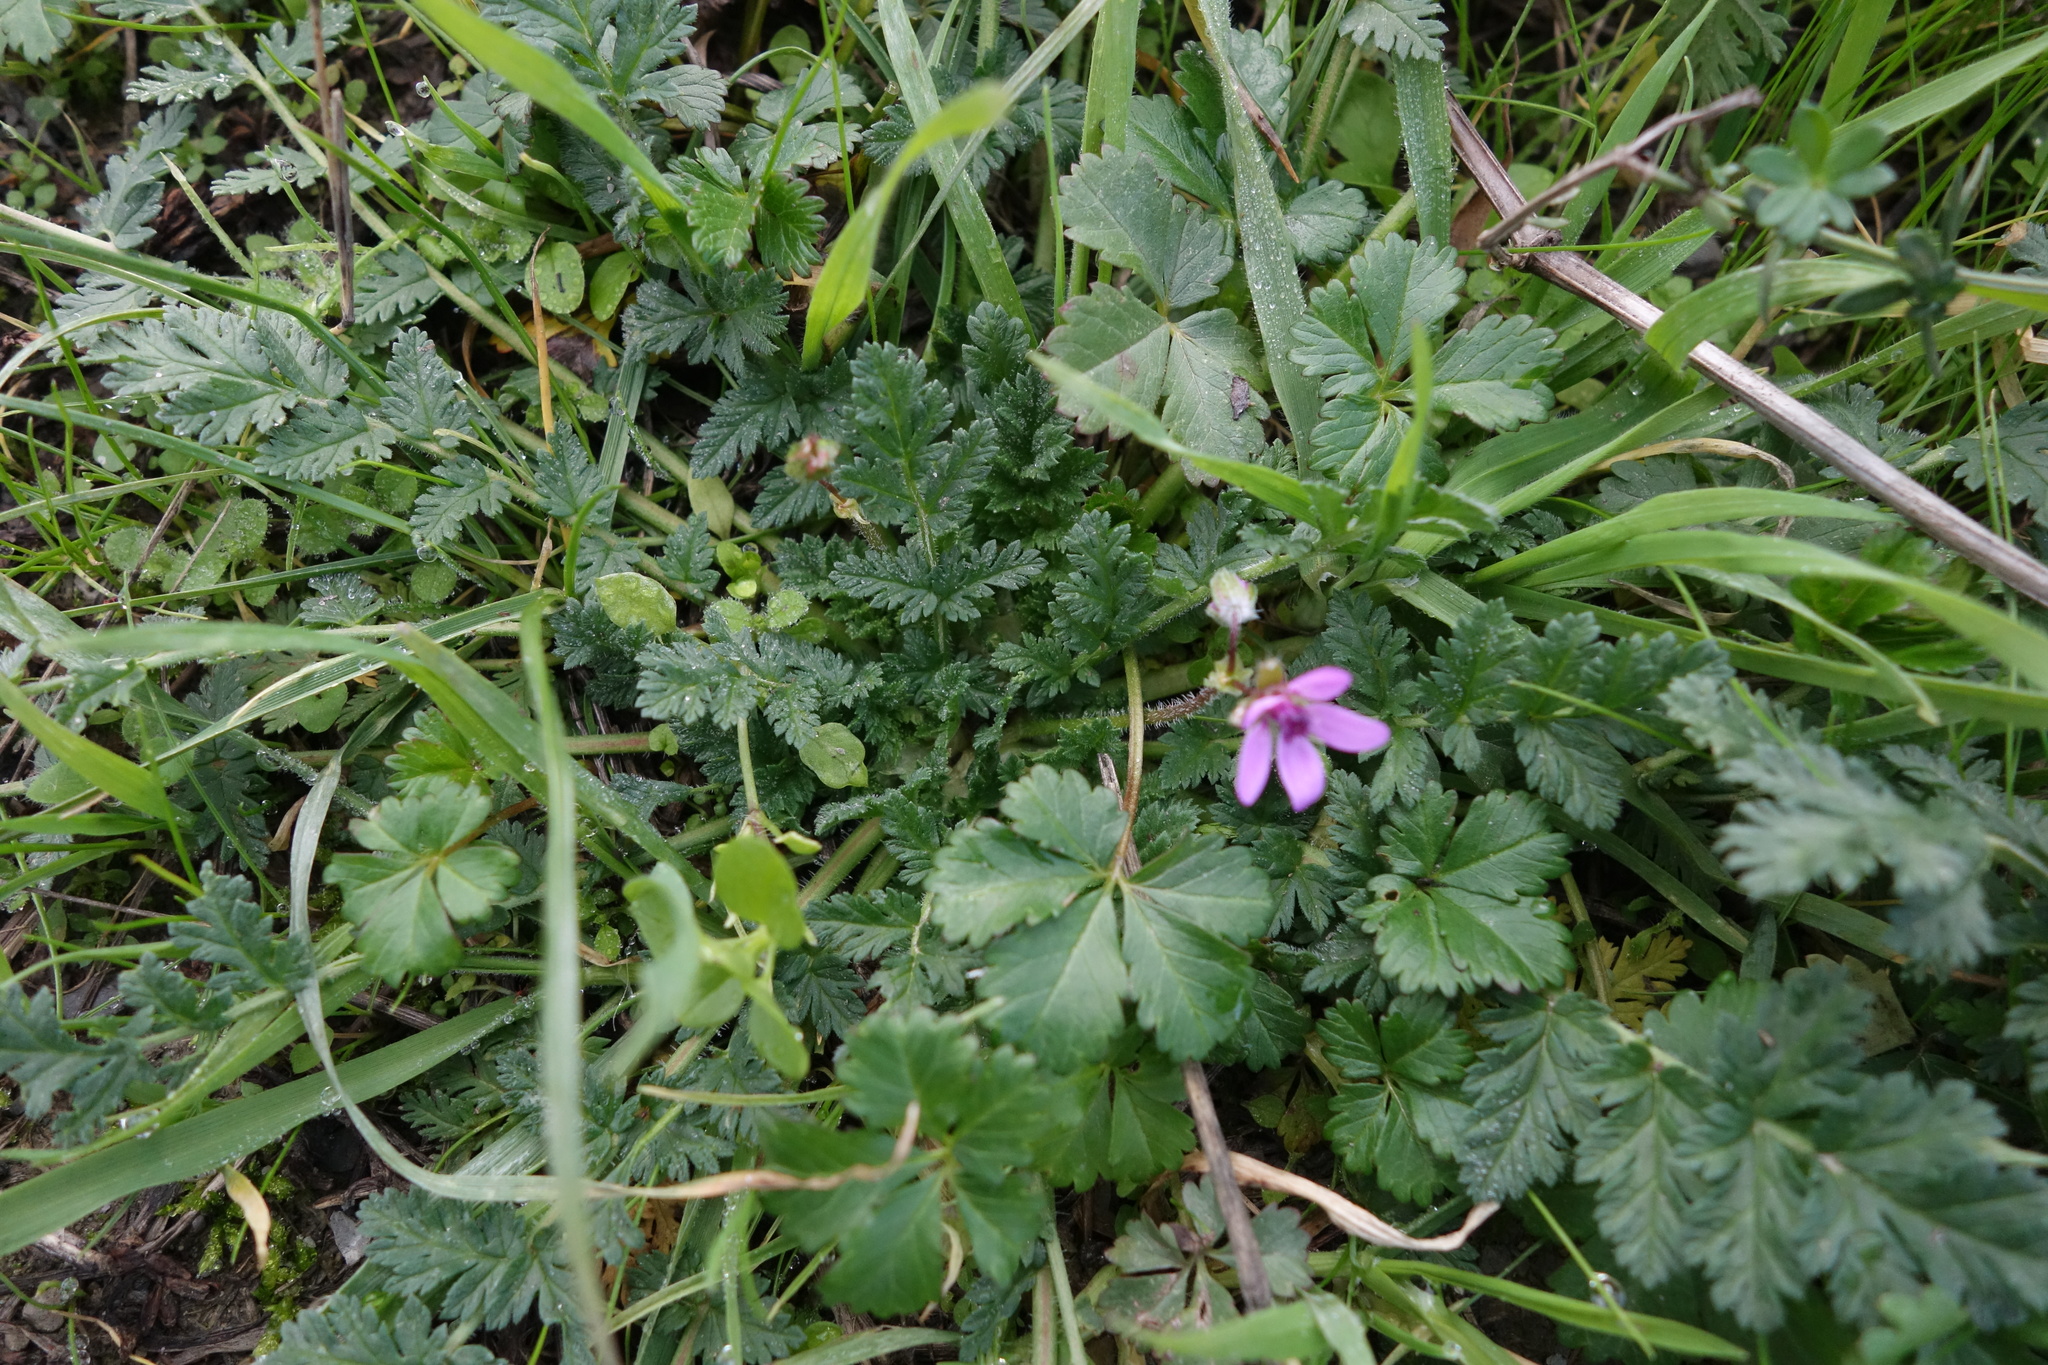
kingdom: Plantae
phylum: Tracheophyta
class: Magnoliopsida
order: Geraniales
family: Geraniaceae
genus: Erodium
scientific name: Erodium cicutarium
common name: Common stork's-bill
